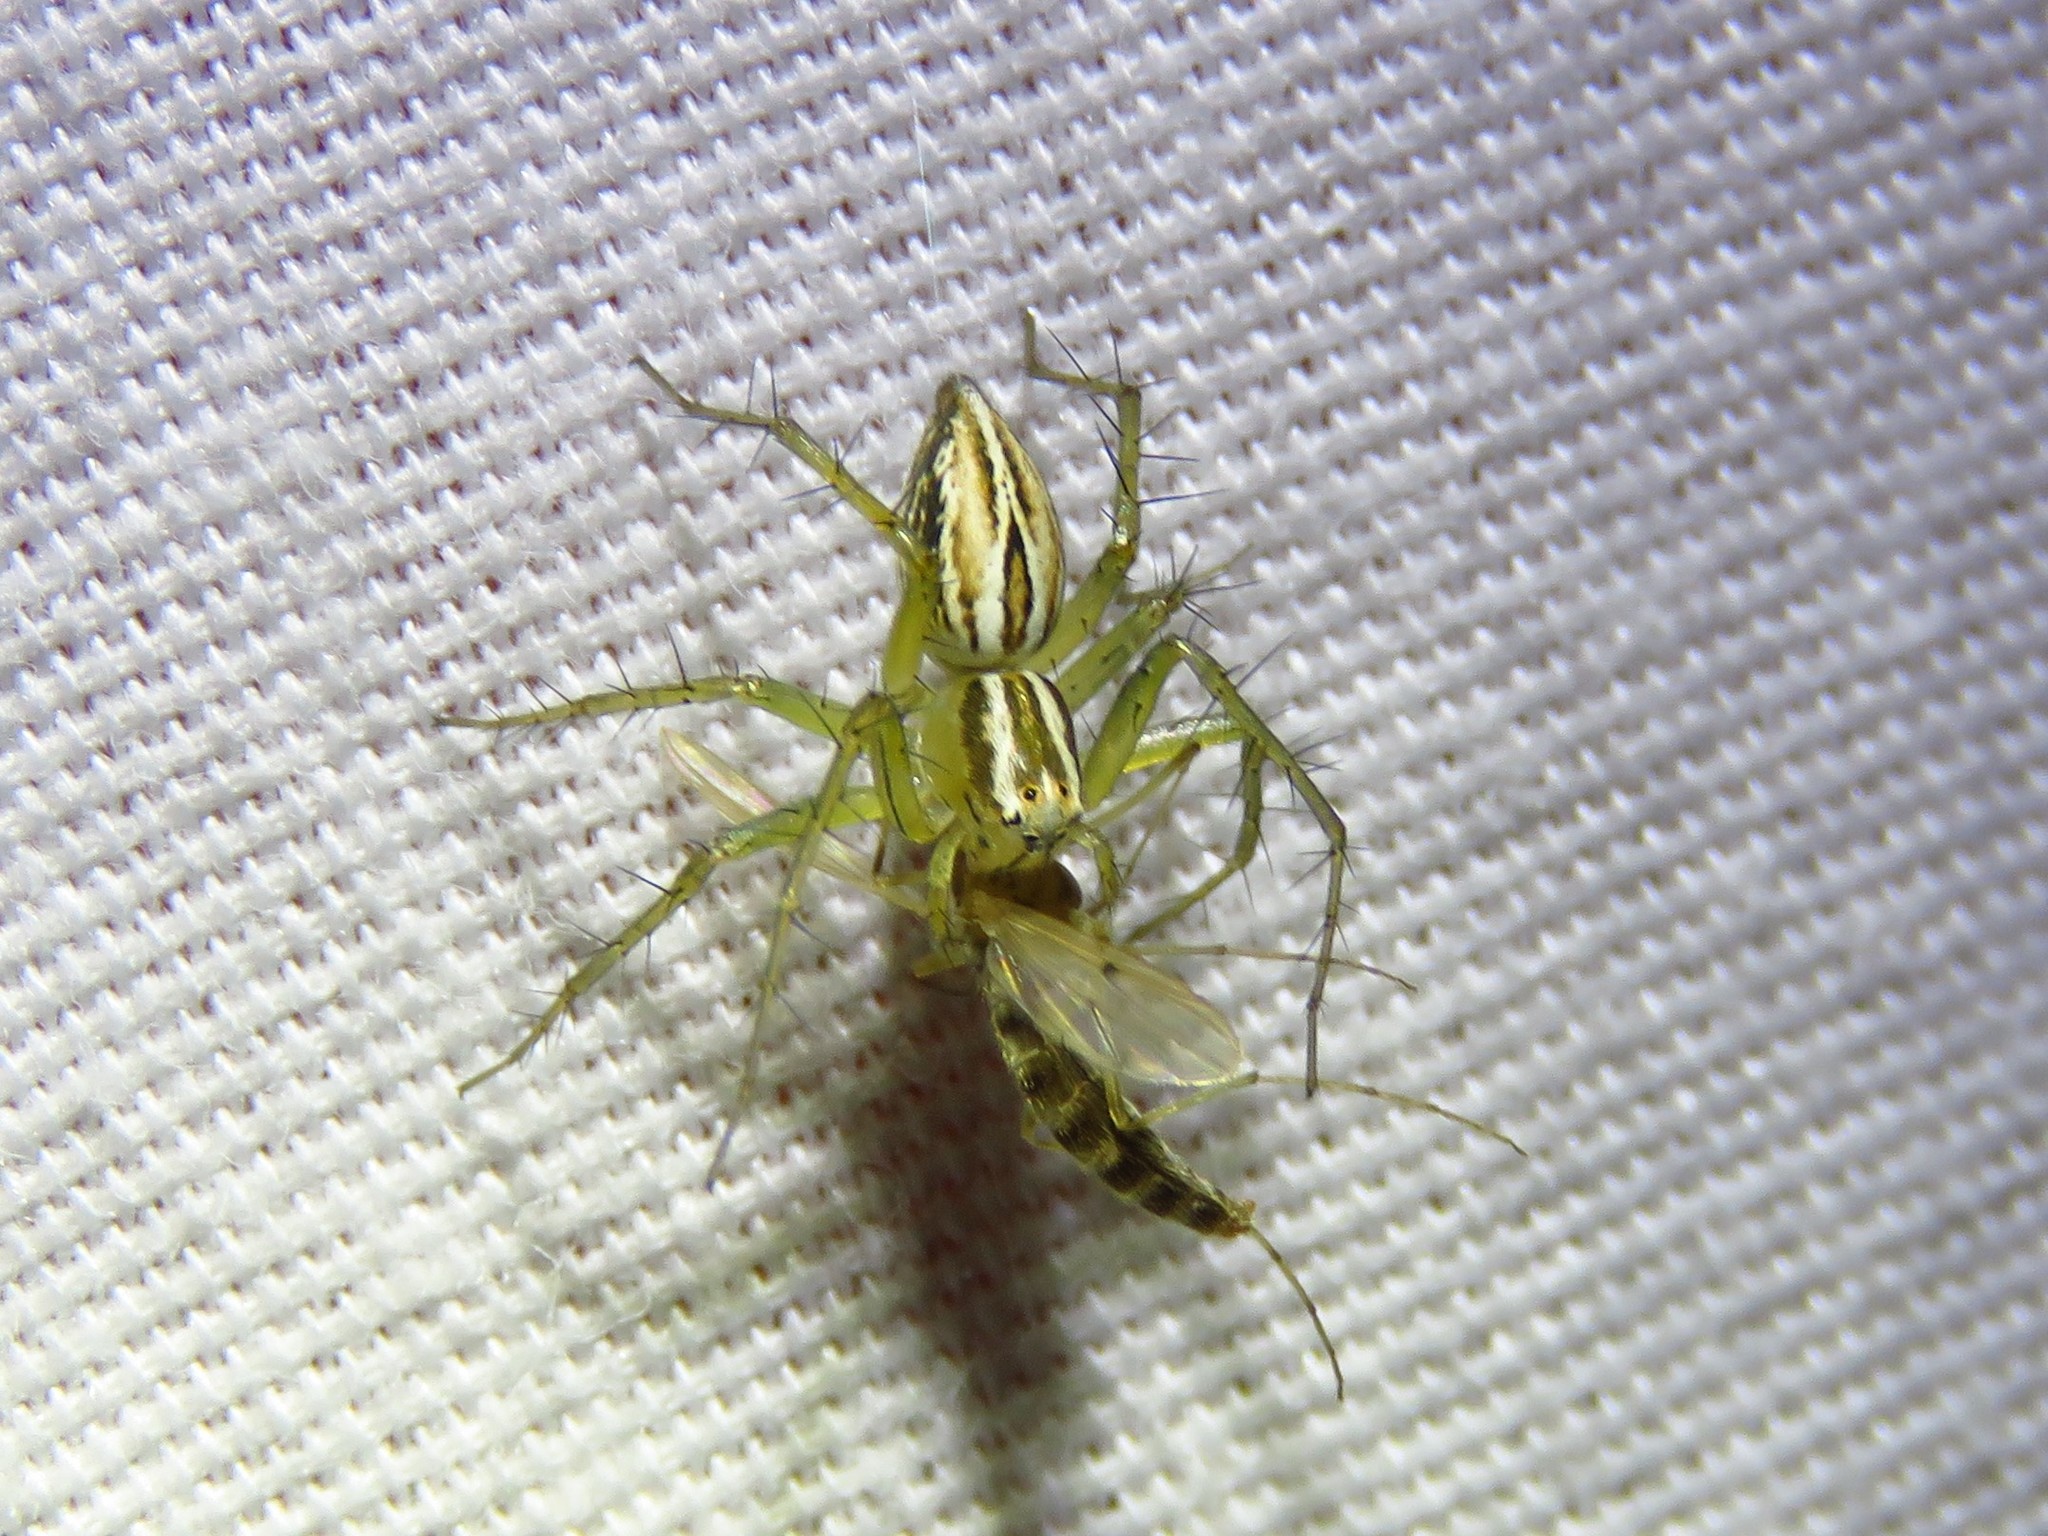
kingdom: Animalia
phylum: Arthropoda
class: Arachnida
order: Araneae
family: Oxyopidae
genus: Oxyopes
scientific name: Oxyopes salticus
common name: Lynx spiders
